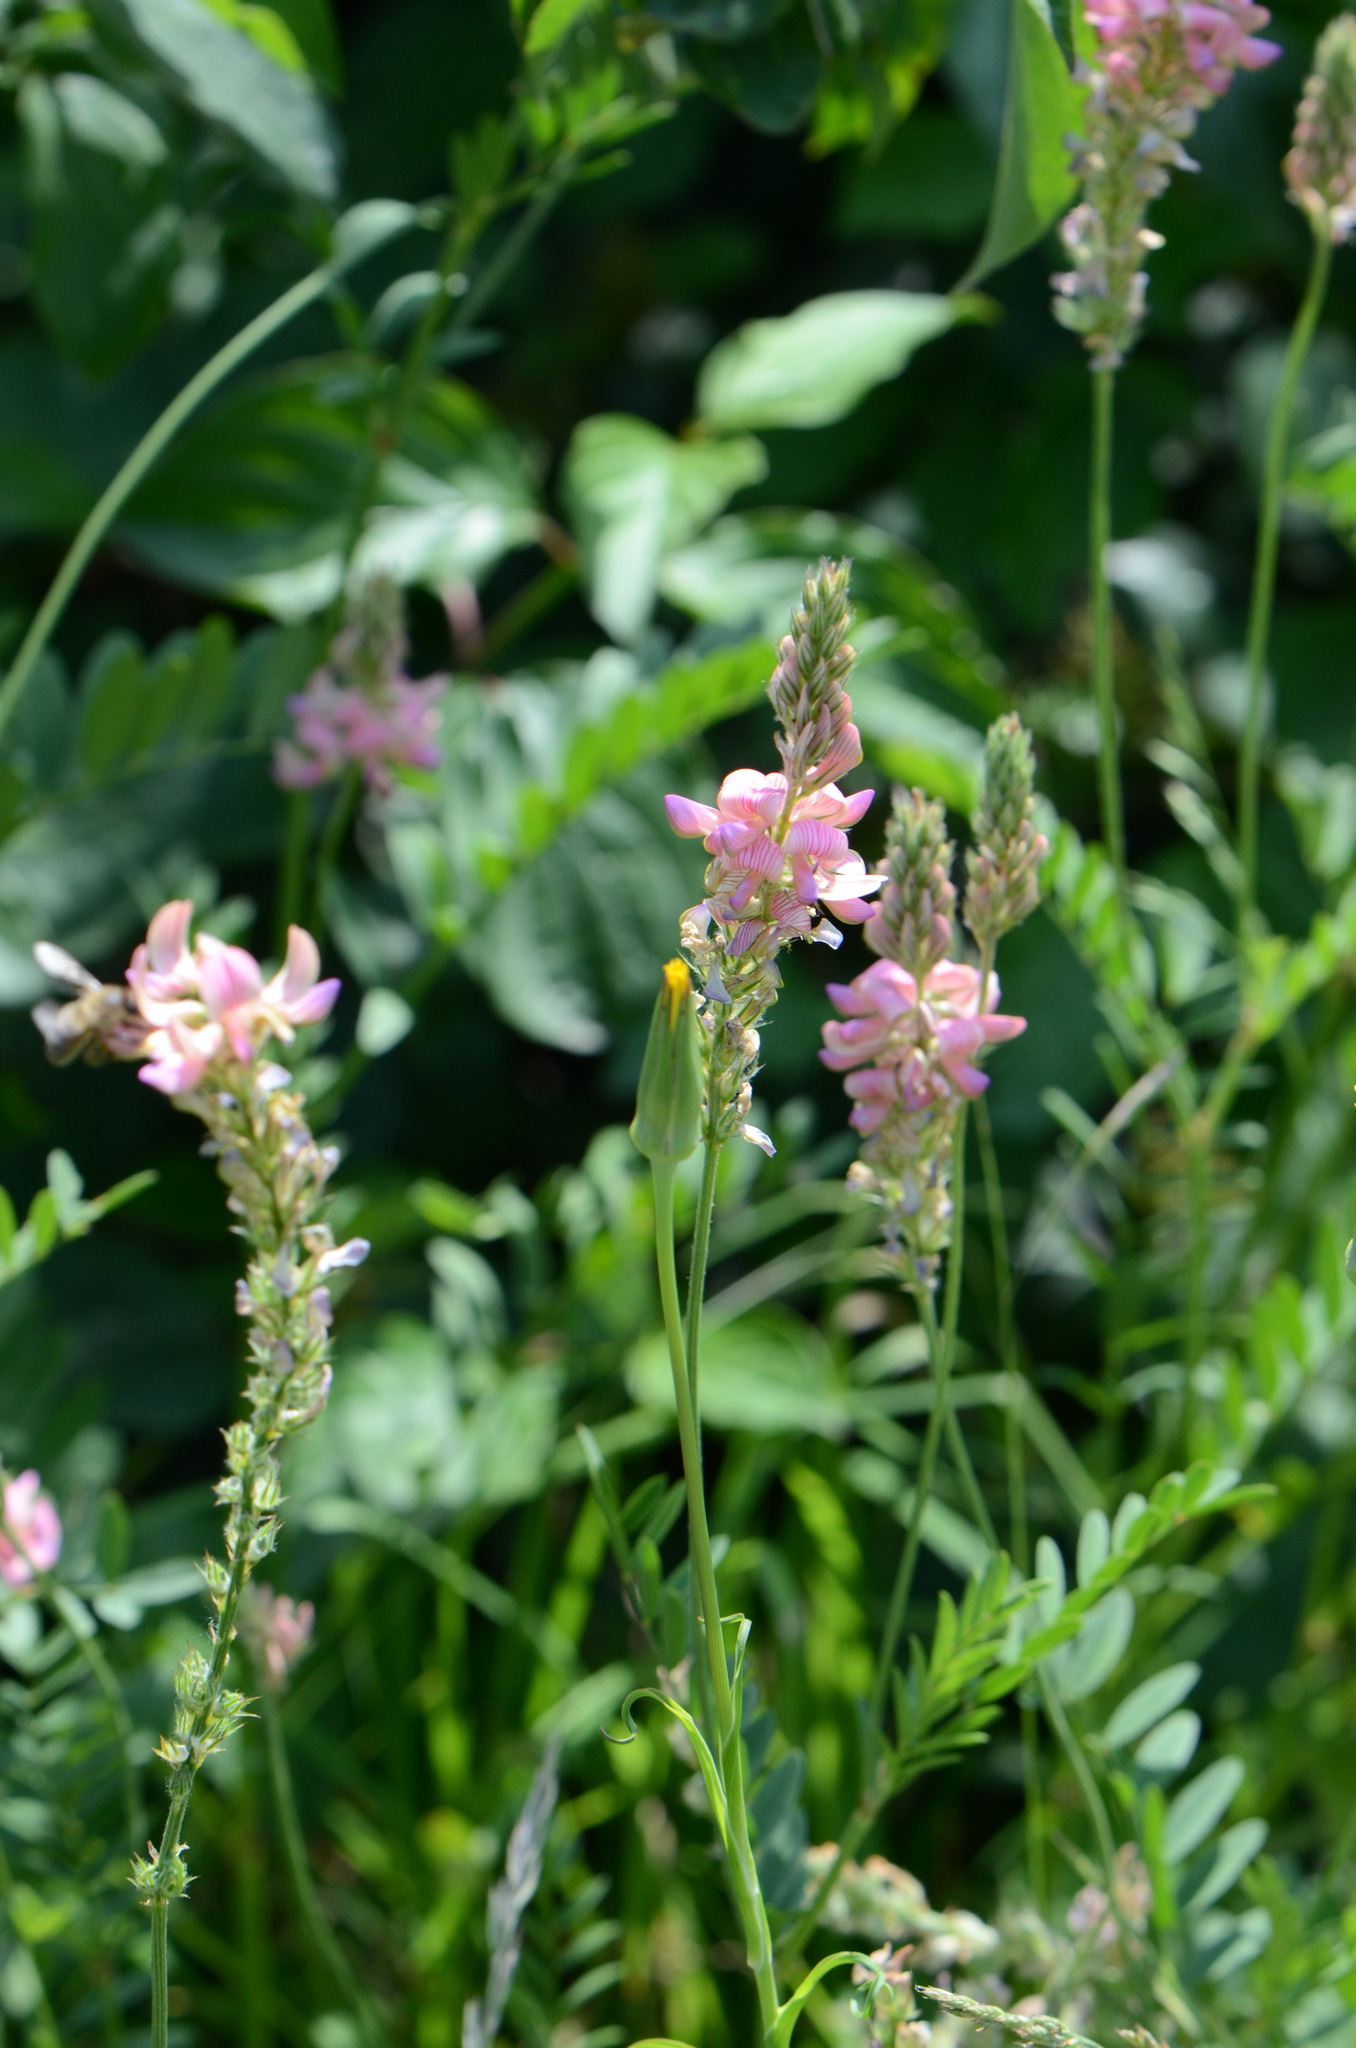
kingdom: Plantae
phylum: Tracheophyta
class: Magnoliopsida
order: Fabales
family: Fabaceae
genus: Onobrychis
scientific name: Onobrychis viciifolia
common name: Sainfoin
